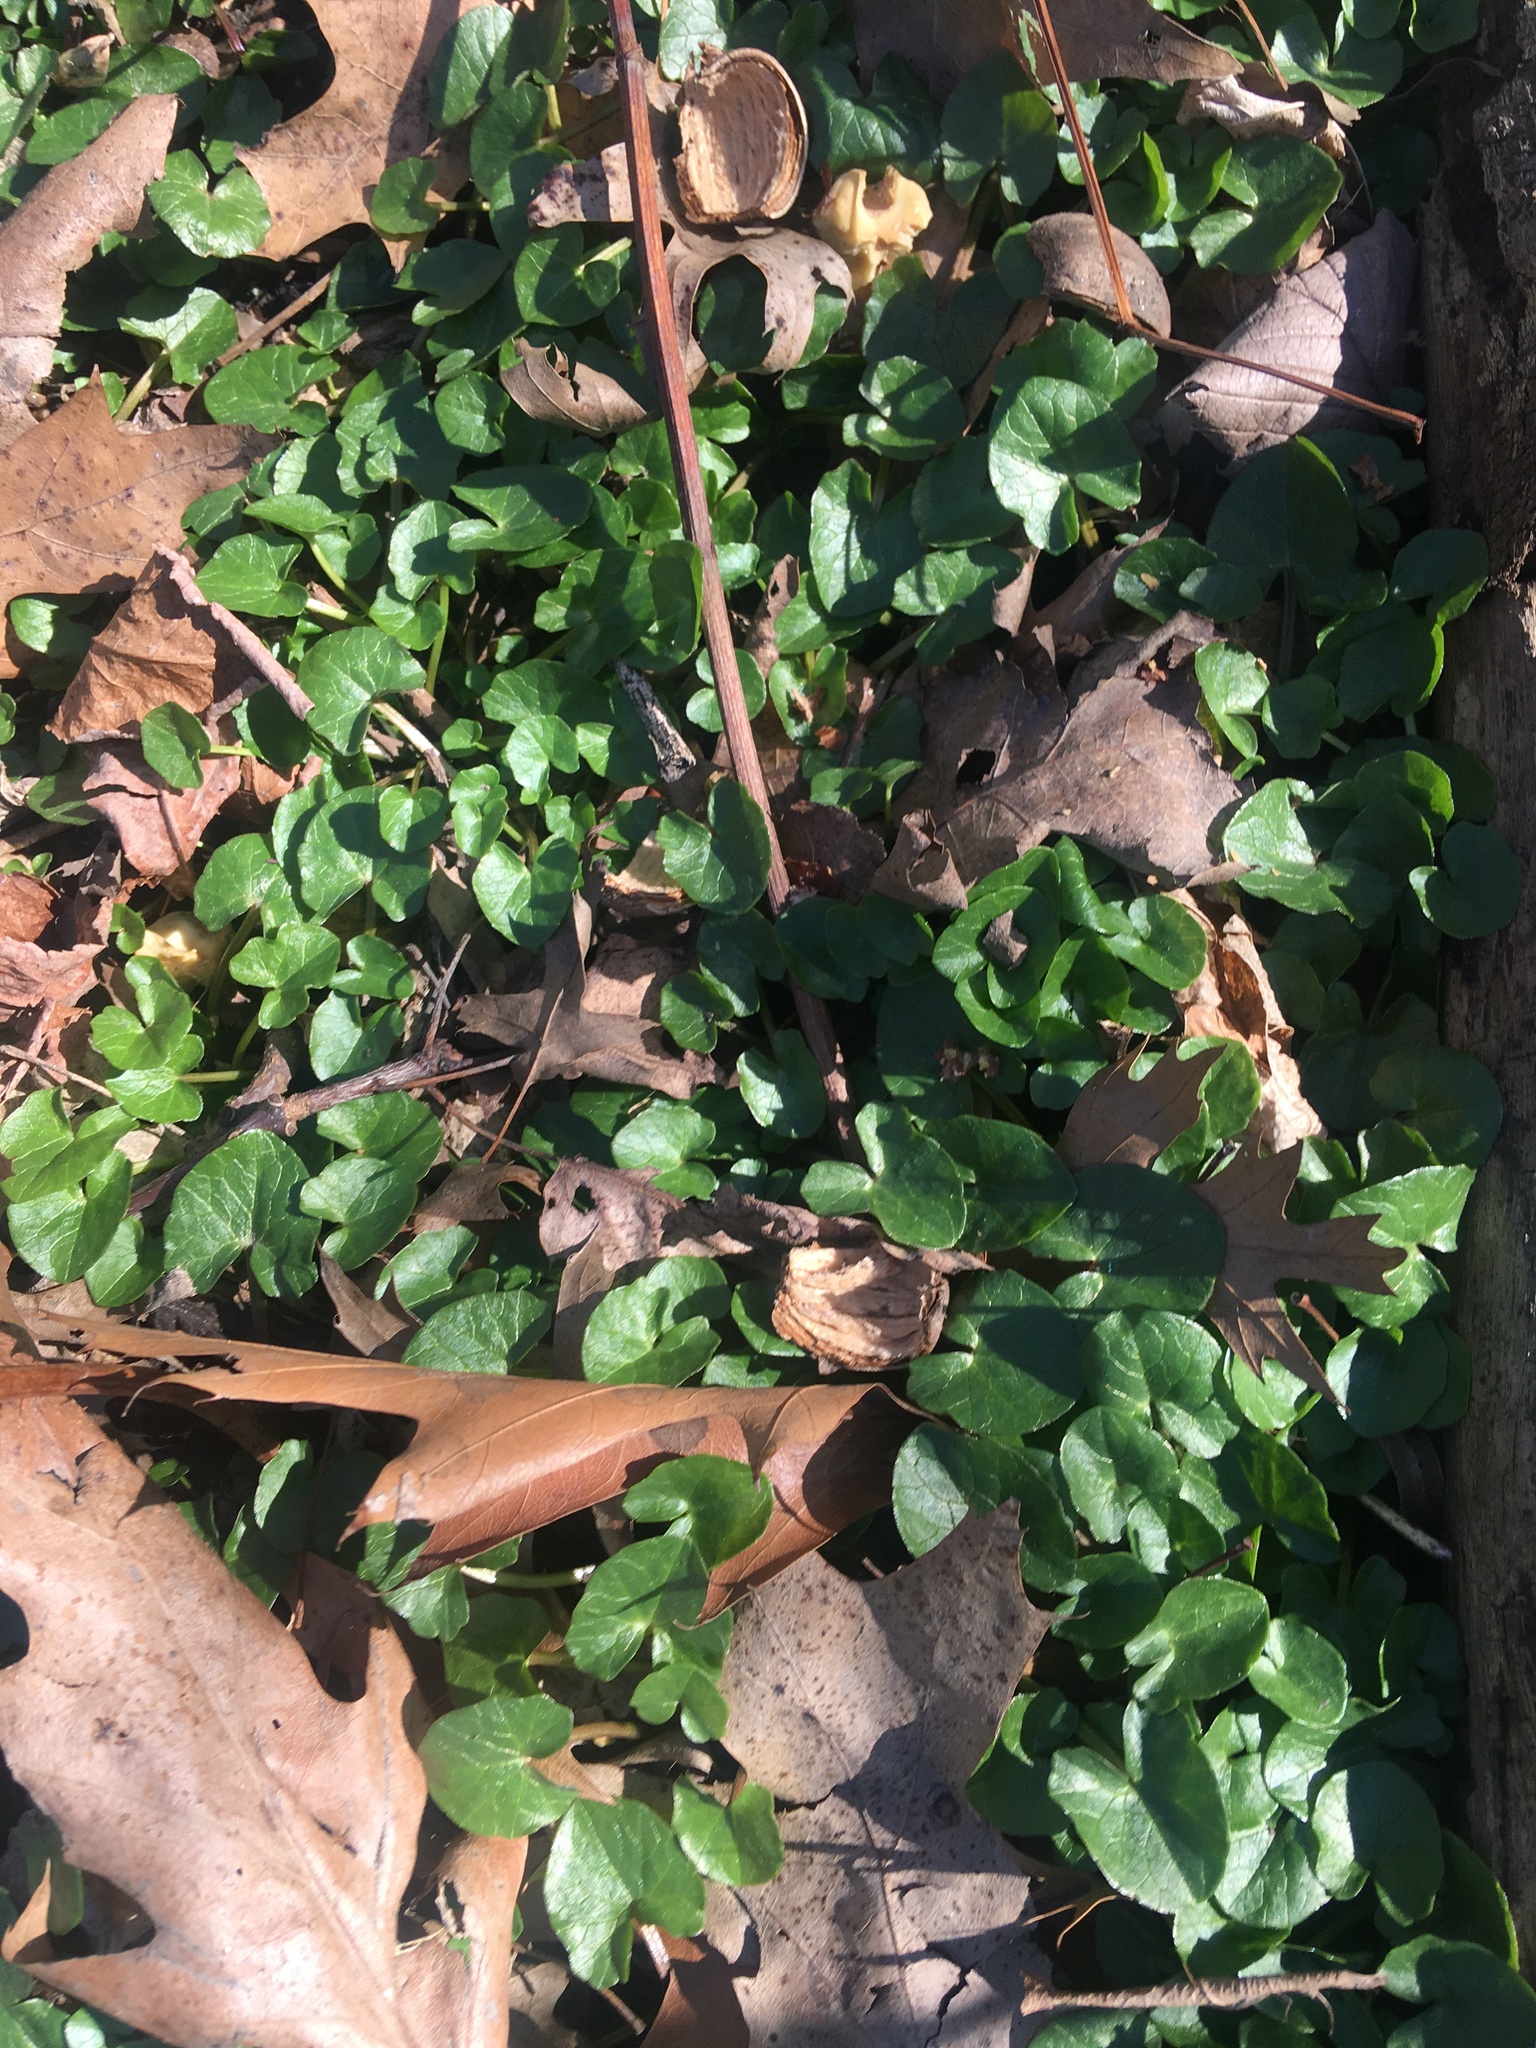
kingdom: Plantae
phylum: Tracheophyta
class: Magnoliopsida
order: Ranunculales
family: Ranunculaceae
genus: Ficaria
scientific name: Ficaria verna
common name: Lesser celandine
